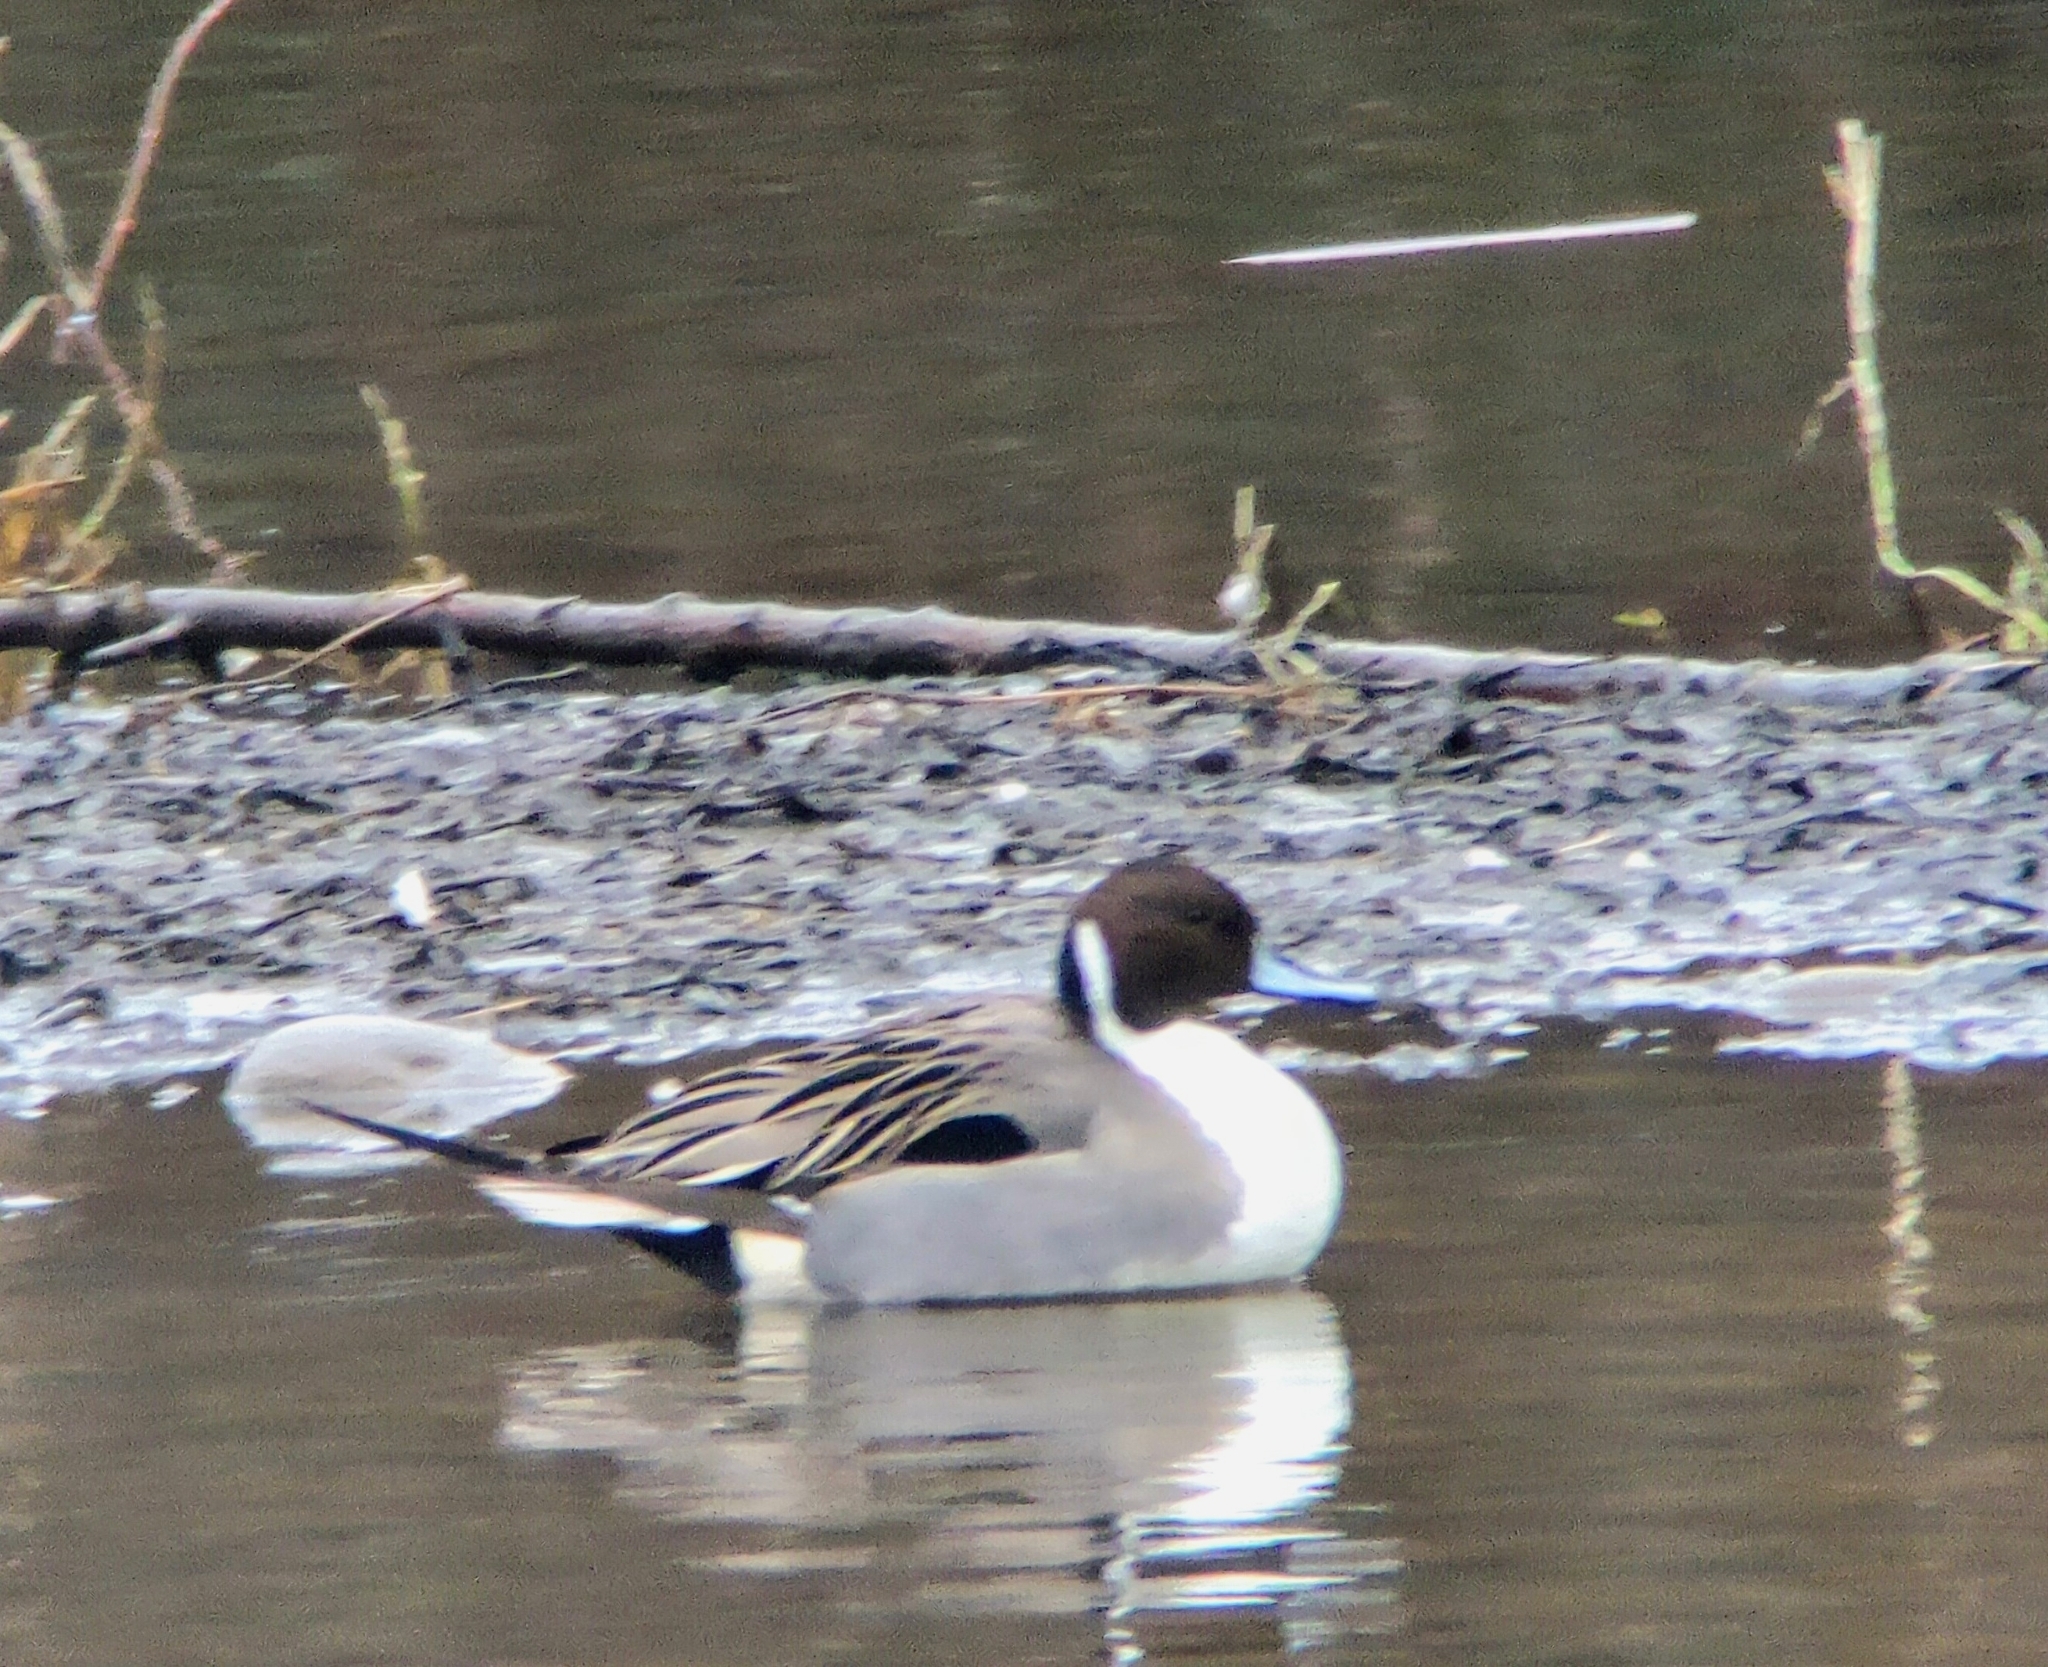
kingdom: Animalia
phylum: Chordata
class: Aves
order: Anseriformes
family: Anatidae
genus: Anas
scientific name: Anas acuta
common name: Northern pintail
